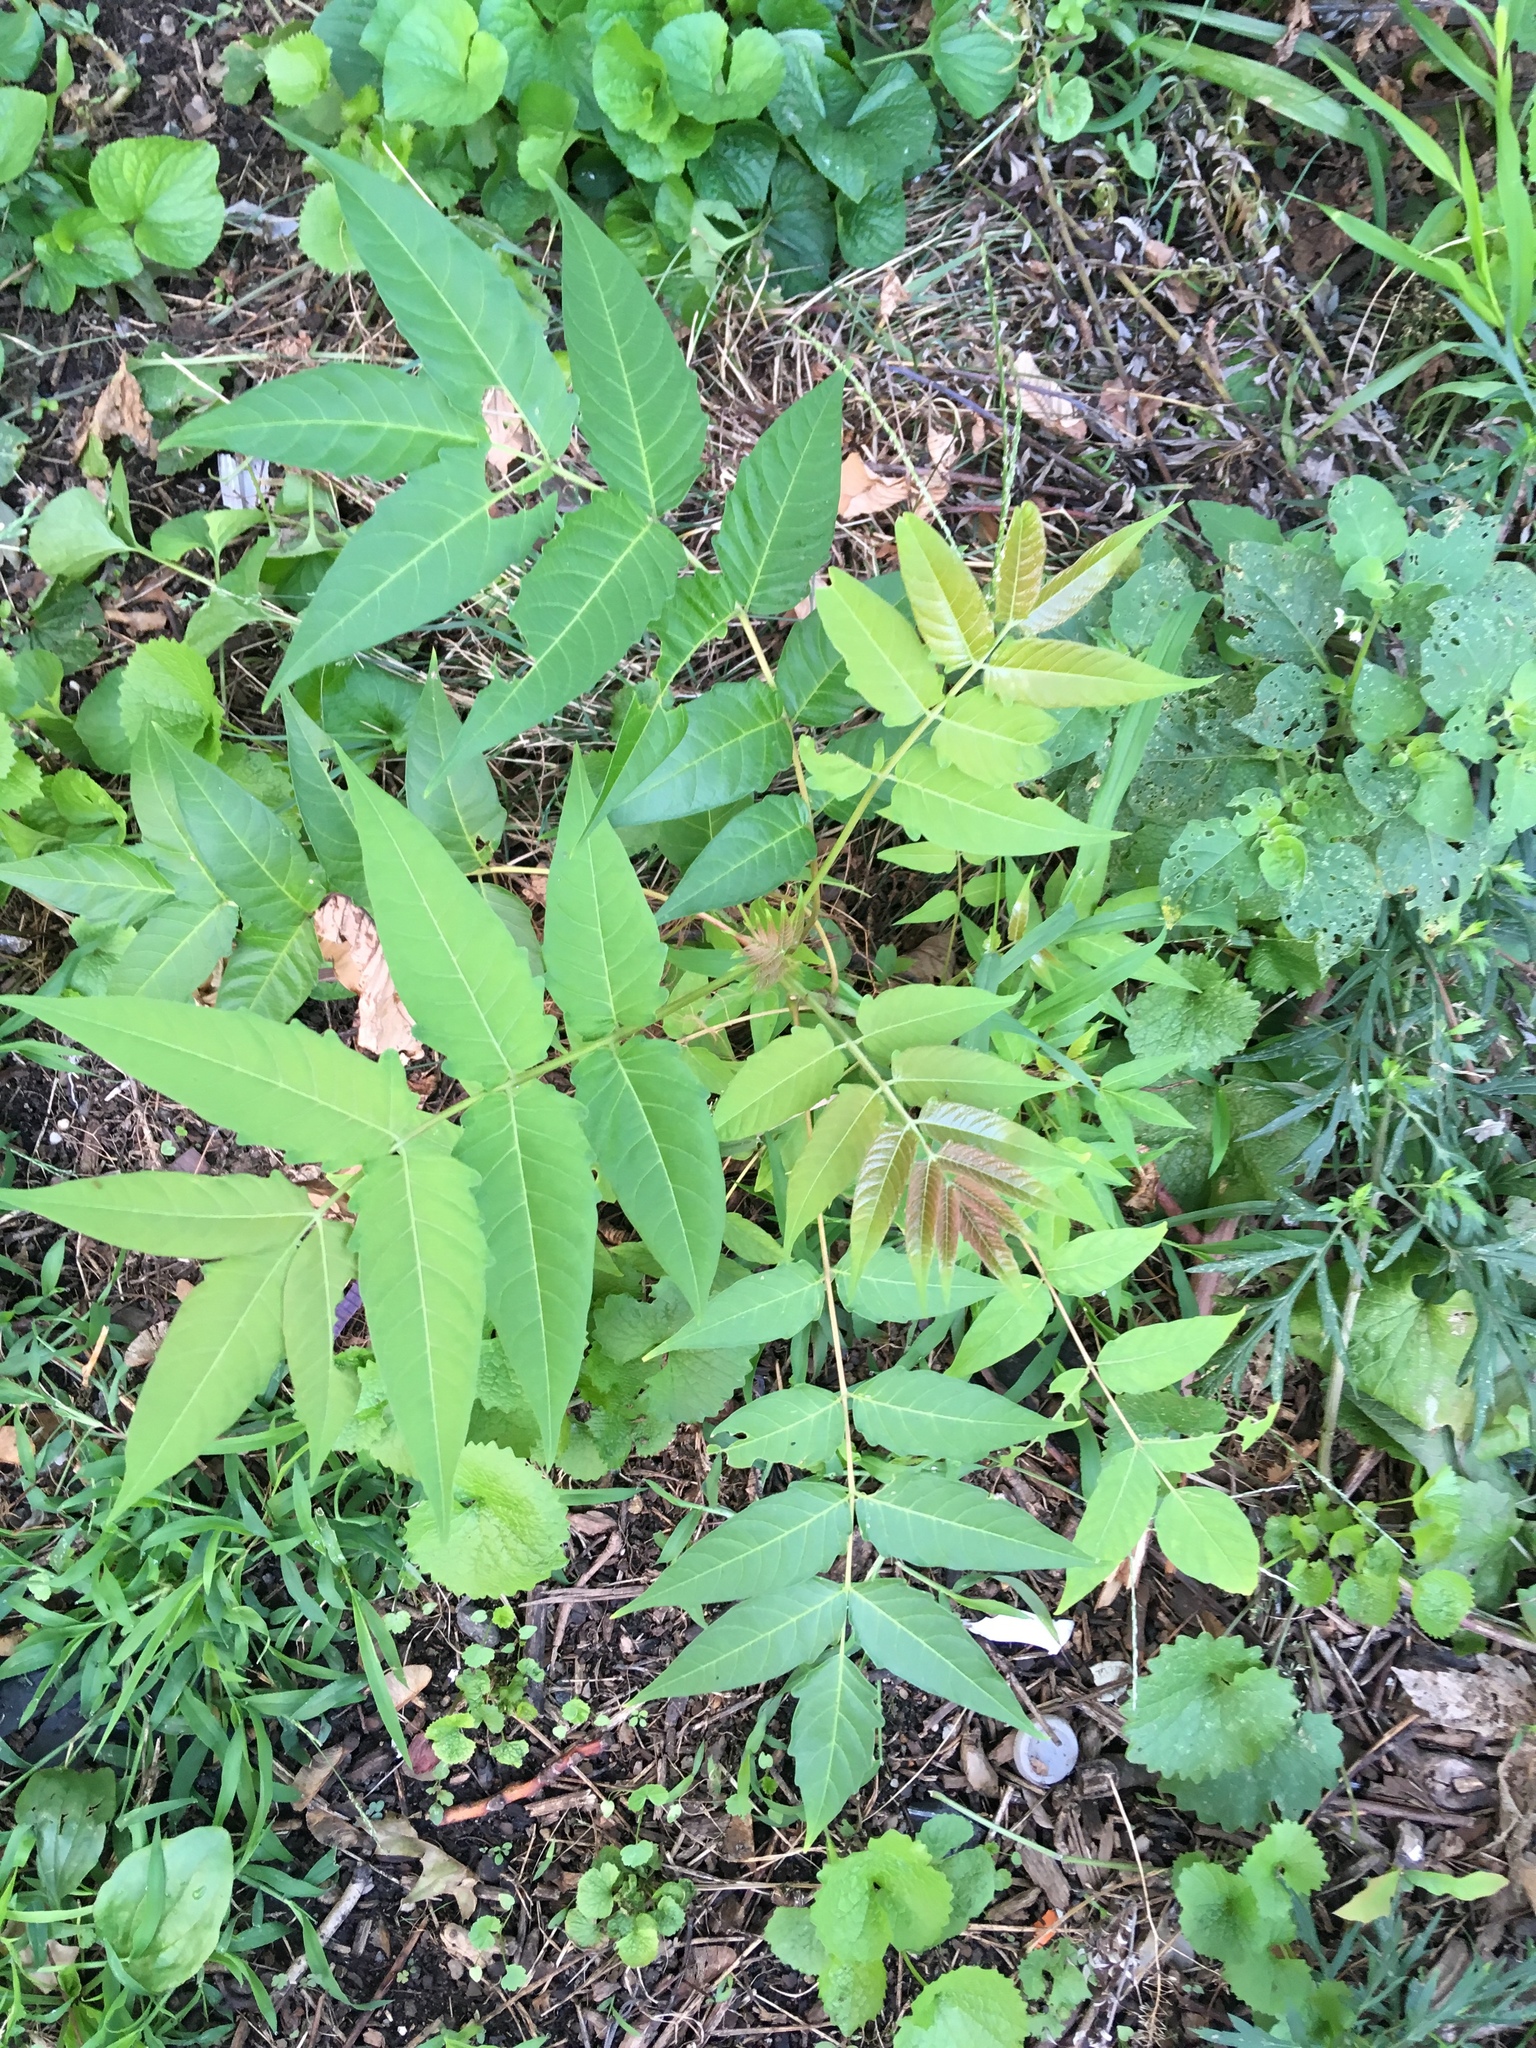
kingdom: Plantae
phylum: Tracheophyta
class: Magnoliopsida
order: Sapindales
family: Simaroubaceae
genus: Ailanthus
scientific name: Ailanthus altissima
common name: Tree-of-heaven
